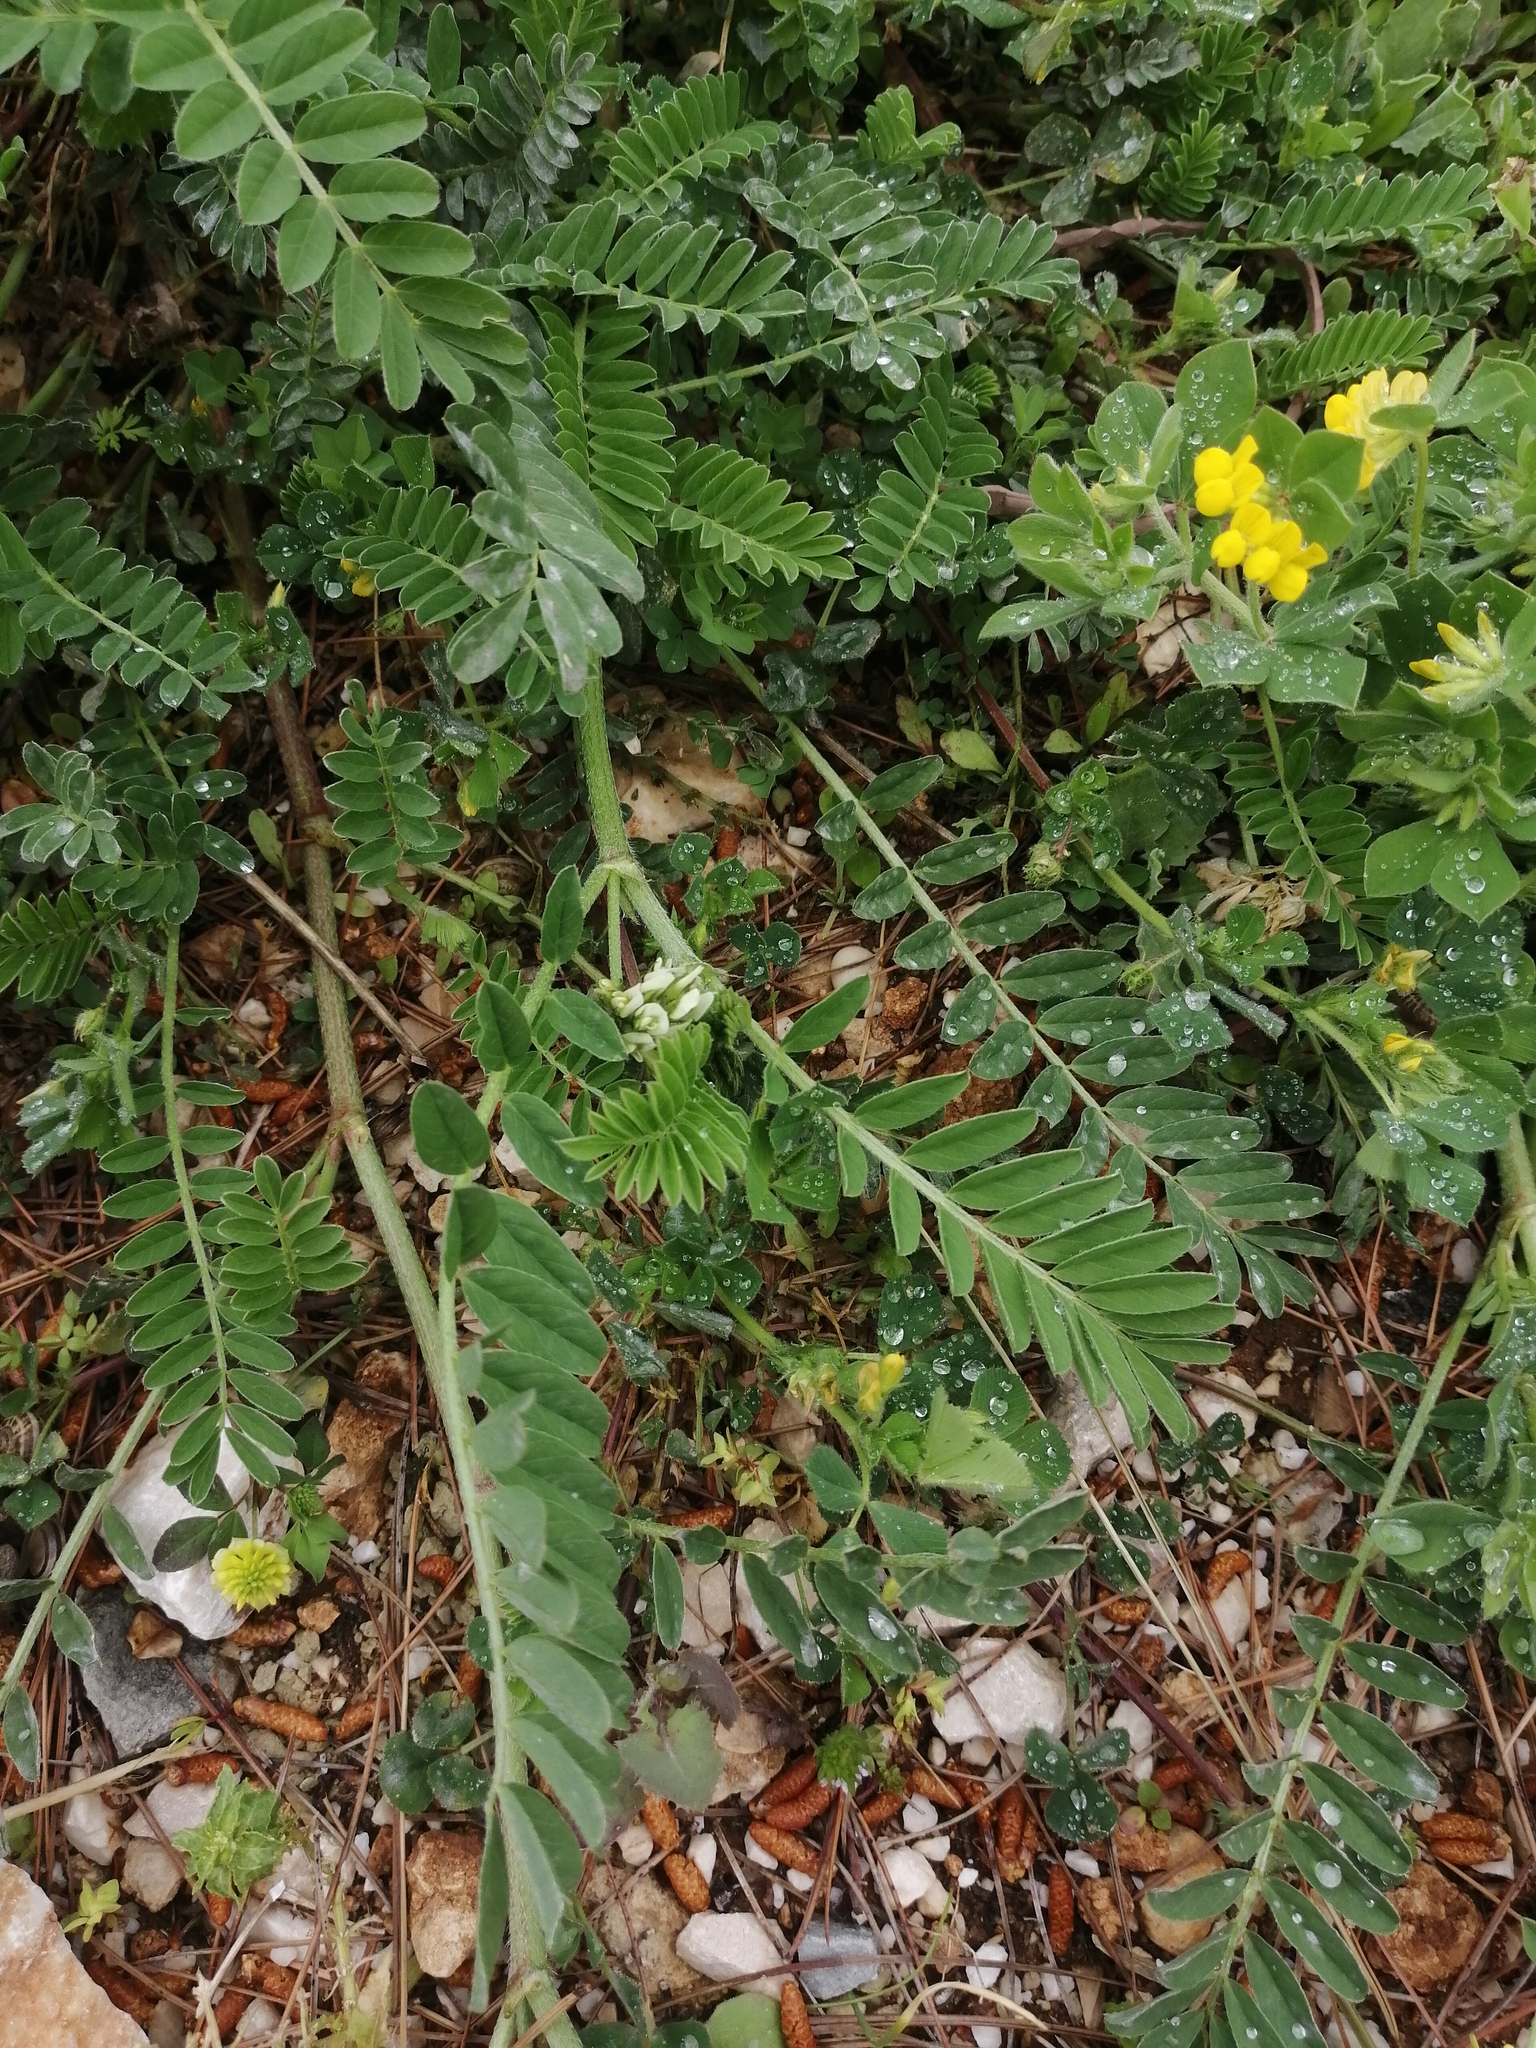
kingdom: Plantae
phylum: Tracheophyta
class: Magnoliopsida
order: Fabales
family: Fabaceae
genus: Astragalus
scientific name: Astragalus hamosus
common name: European milkvetch
